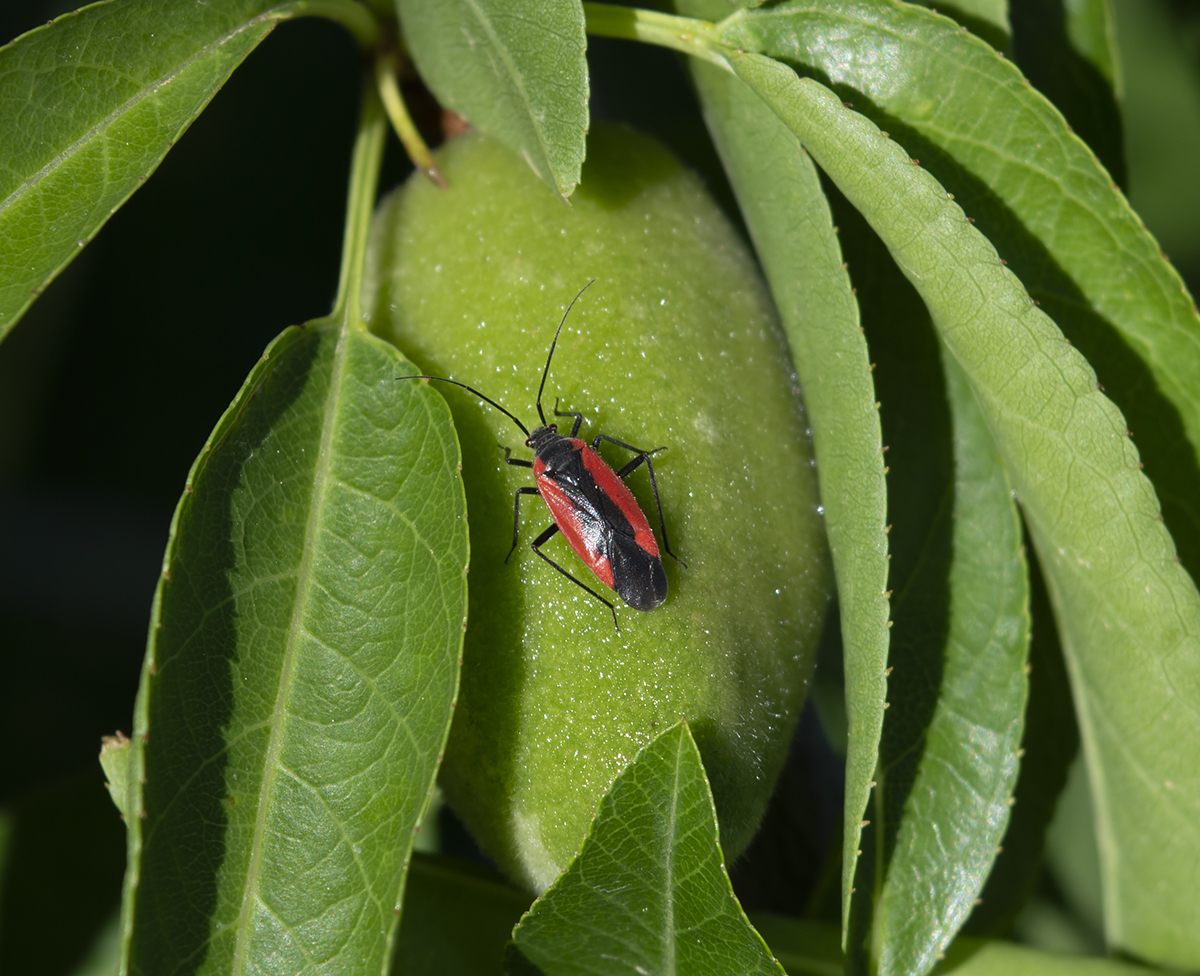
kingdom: Animalia
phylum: Arthropoda
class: Insecta
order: Hemiptera
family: Miridae
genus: Dionconotus
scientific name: Dionconotus neglectus
